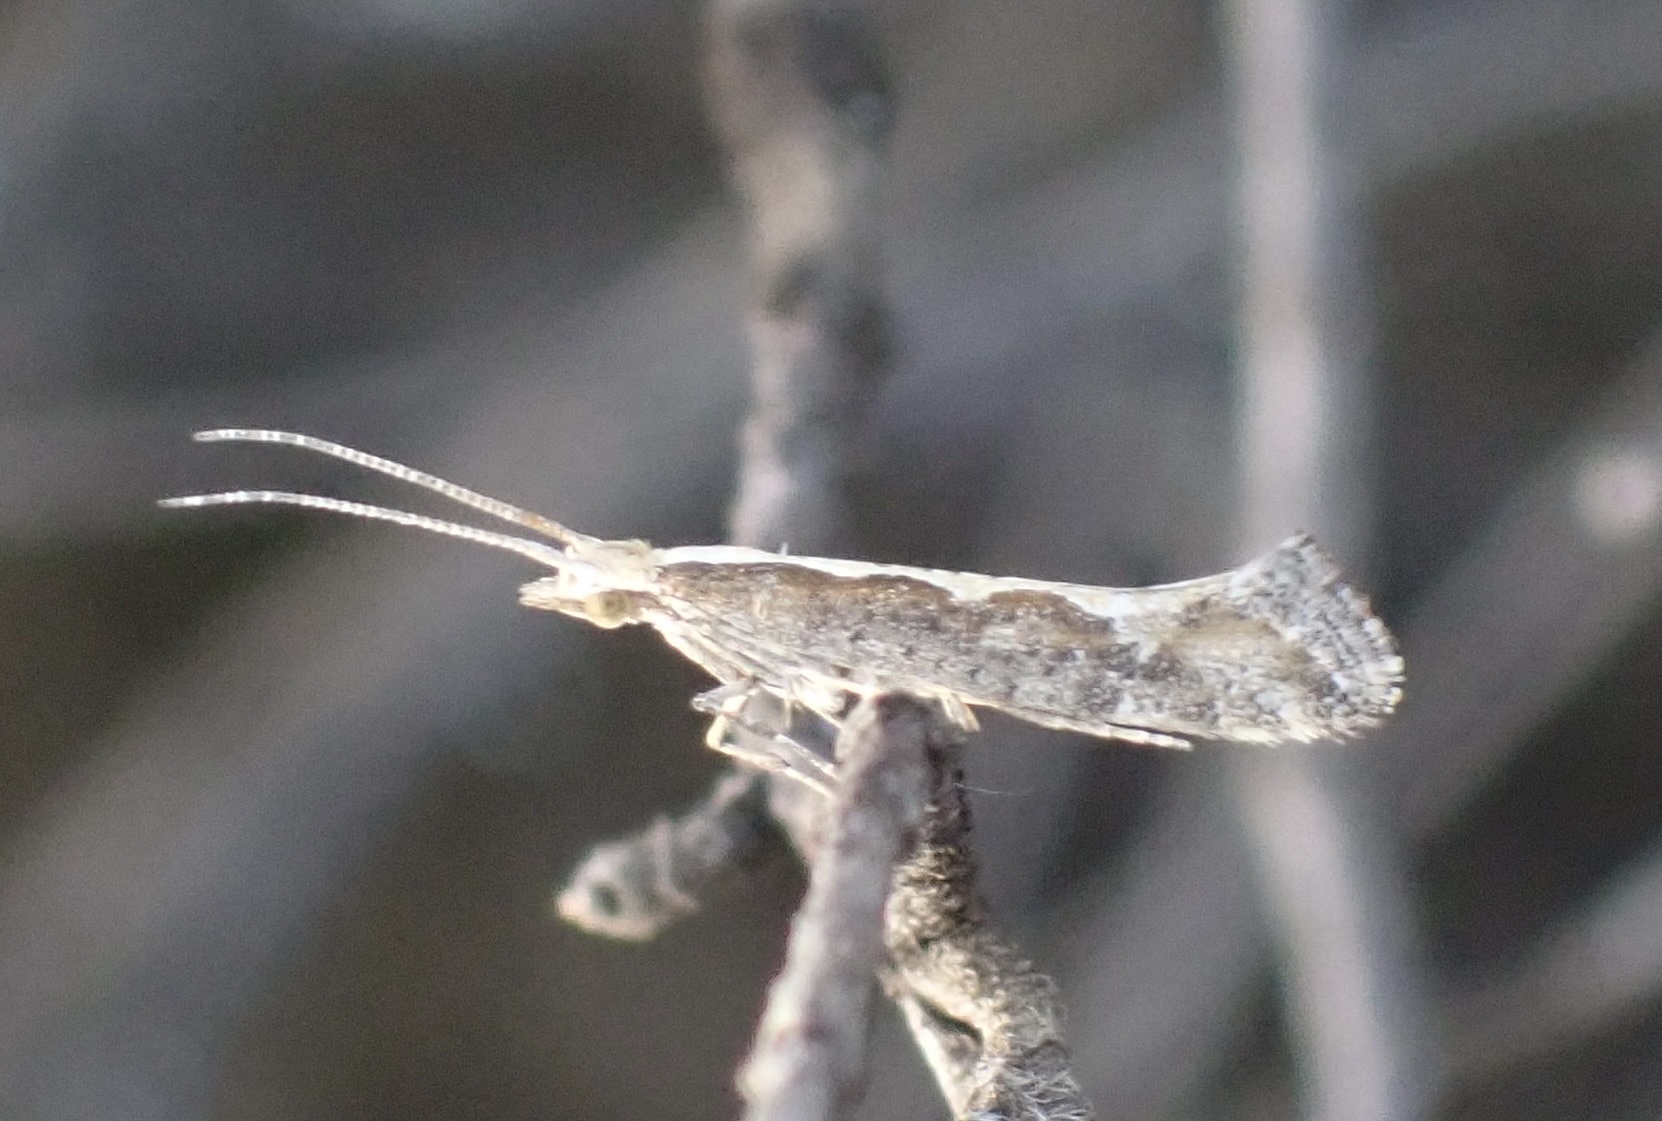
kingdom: Animalia
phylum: Arthropoda
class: Insecta
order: Lepidoptera
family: Plutellidae
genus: Plutella
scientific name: Plutella xylostella
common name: Diamond-back moth
